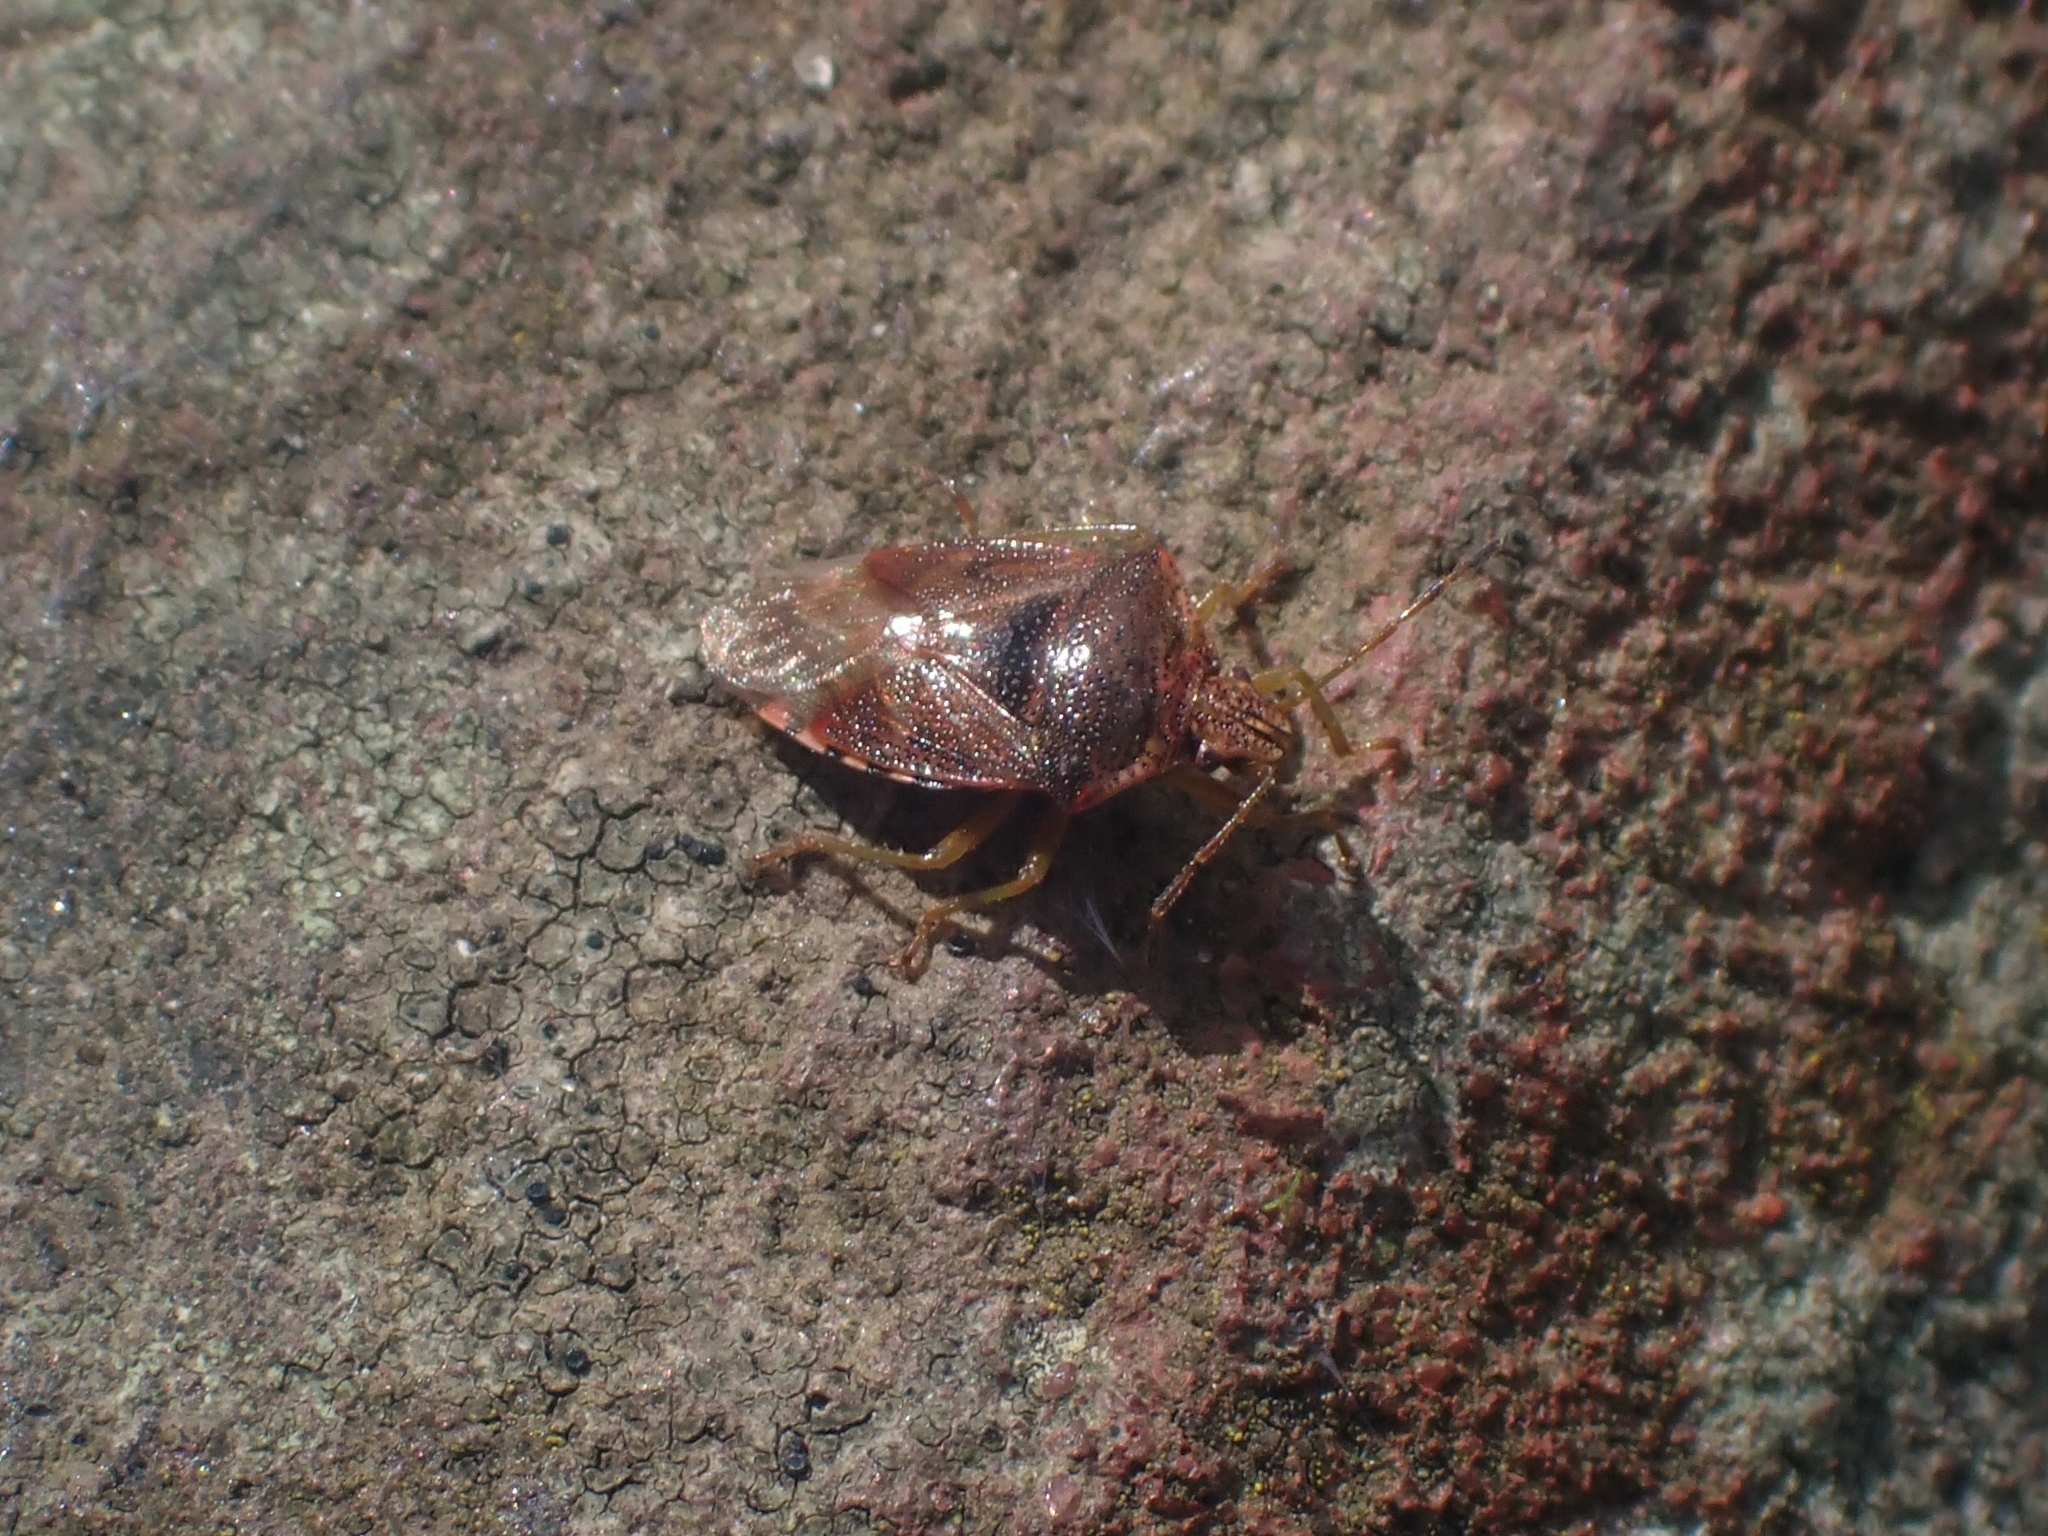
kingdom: Animalia
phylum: Arthropoda
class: Insecta
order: Hemiptera
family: Acanthosomatidae
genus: Elasmucha
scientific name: Elasmucha grisea
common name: Parent bug
